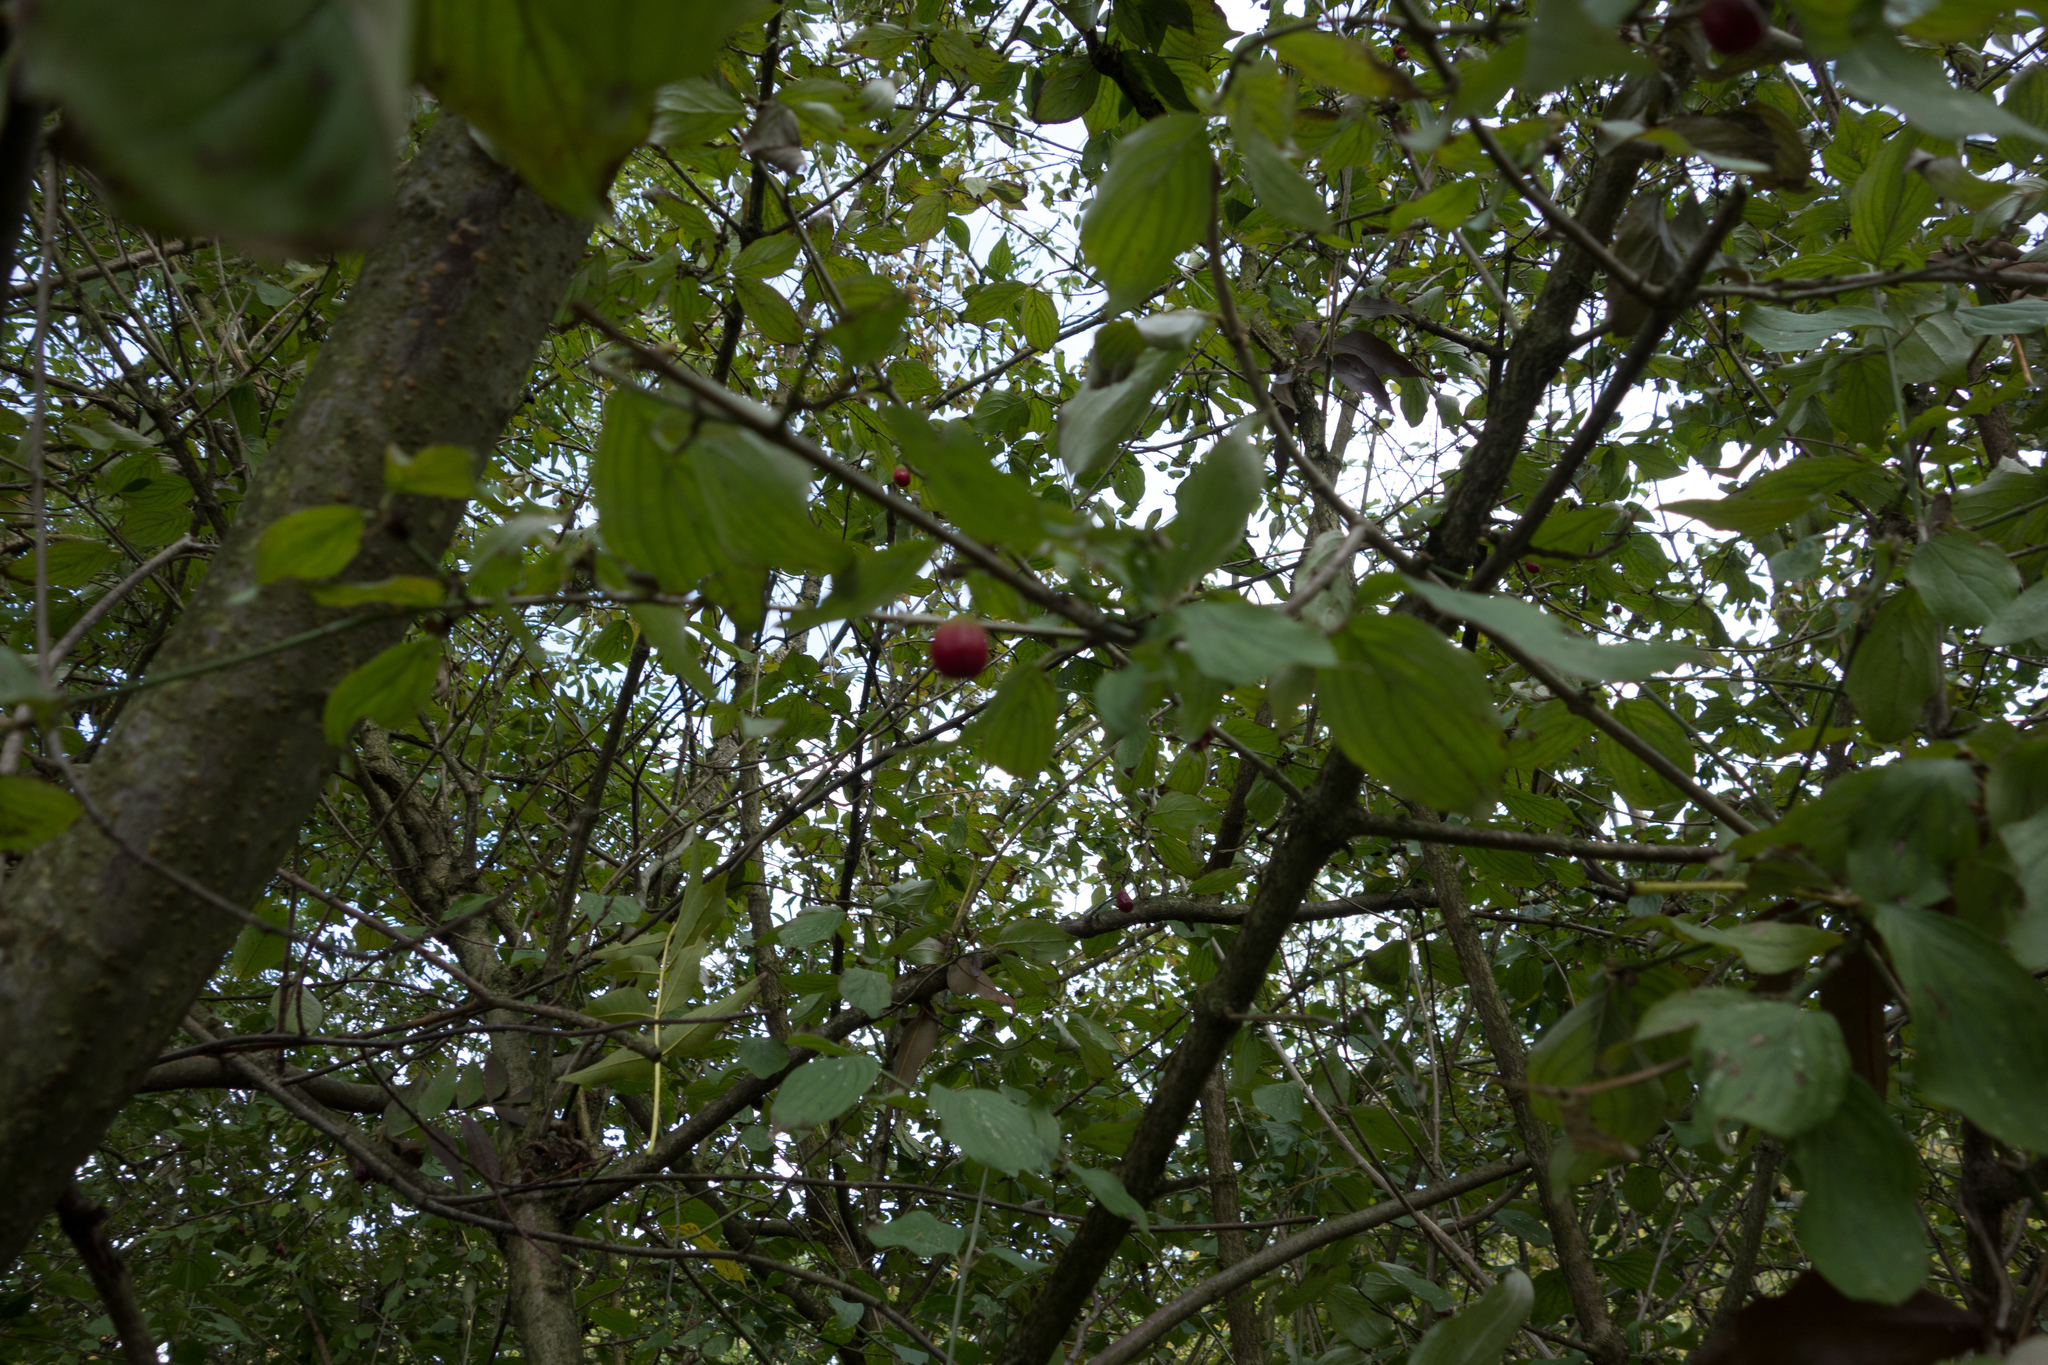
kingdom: Plantae
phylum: Tracheophyta
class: Magnoliopsida
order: Cornales
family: Cornaceae
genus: Cornus
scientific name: Cornus mas
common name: Cornelian-cherry
